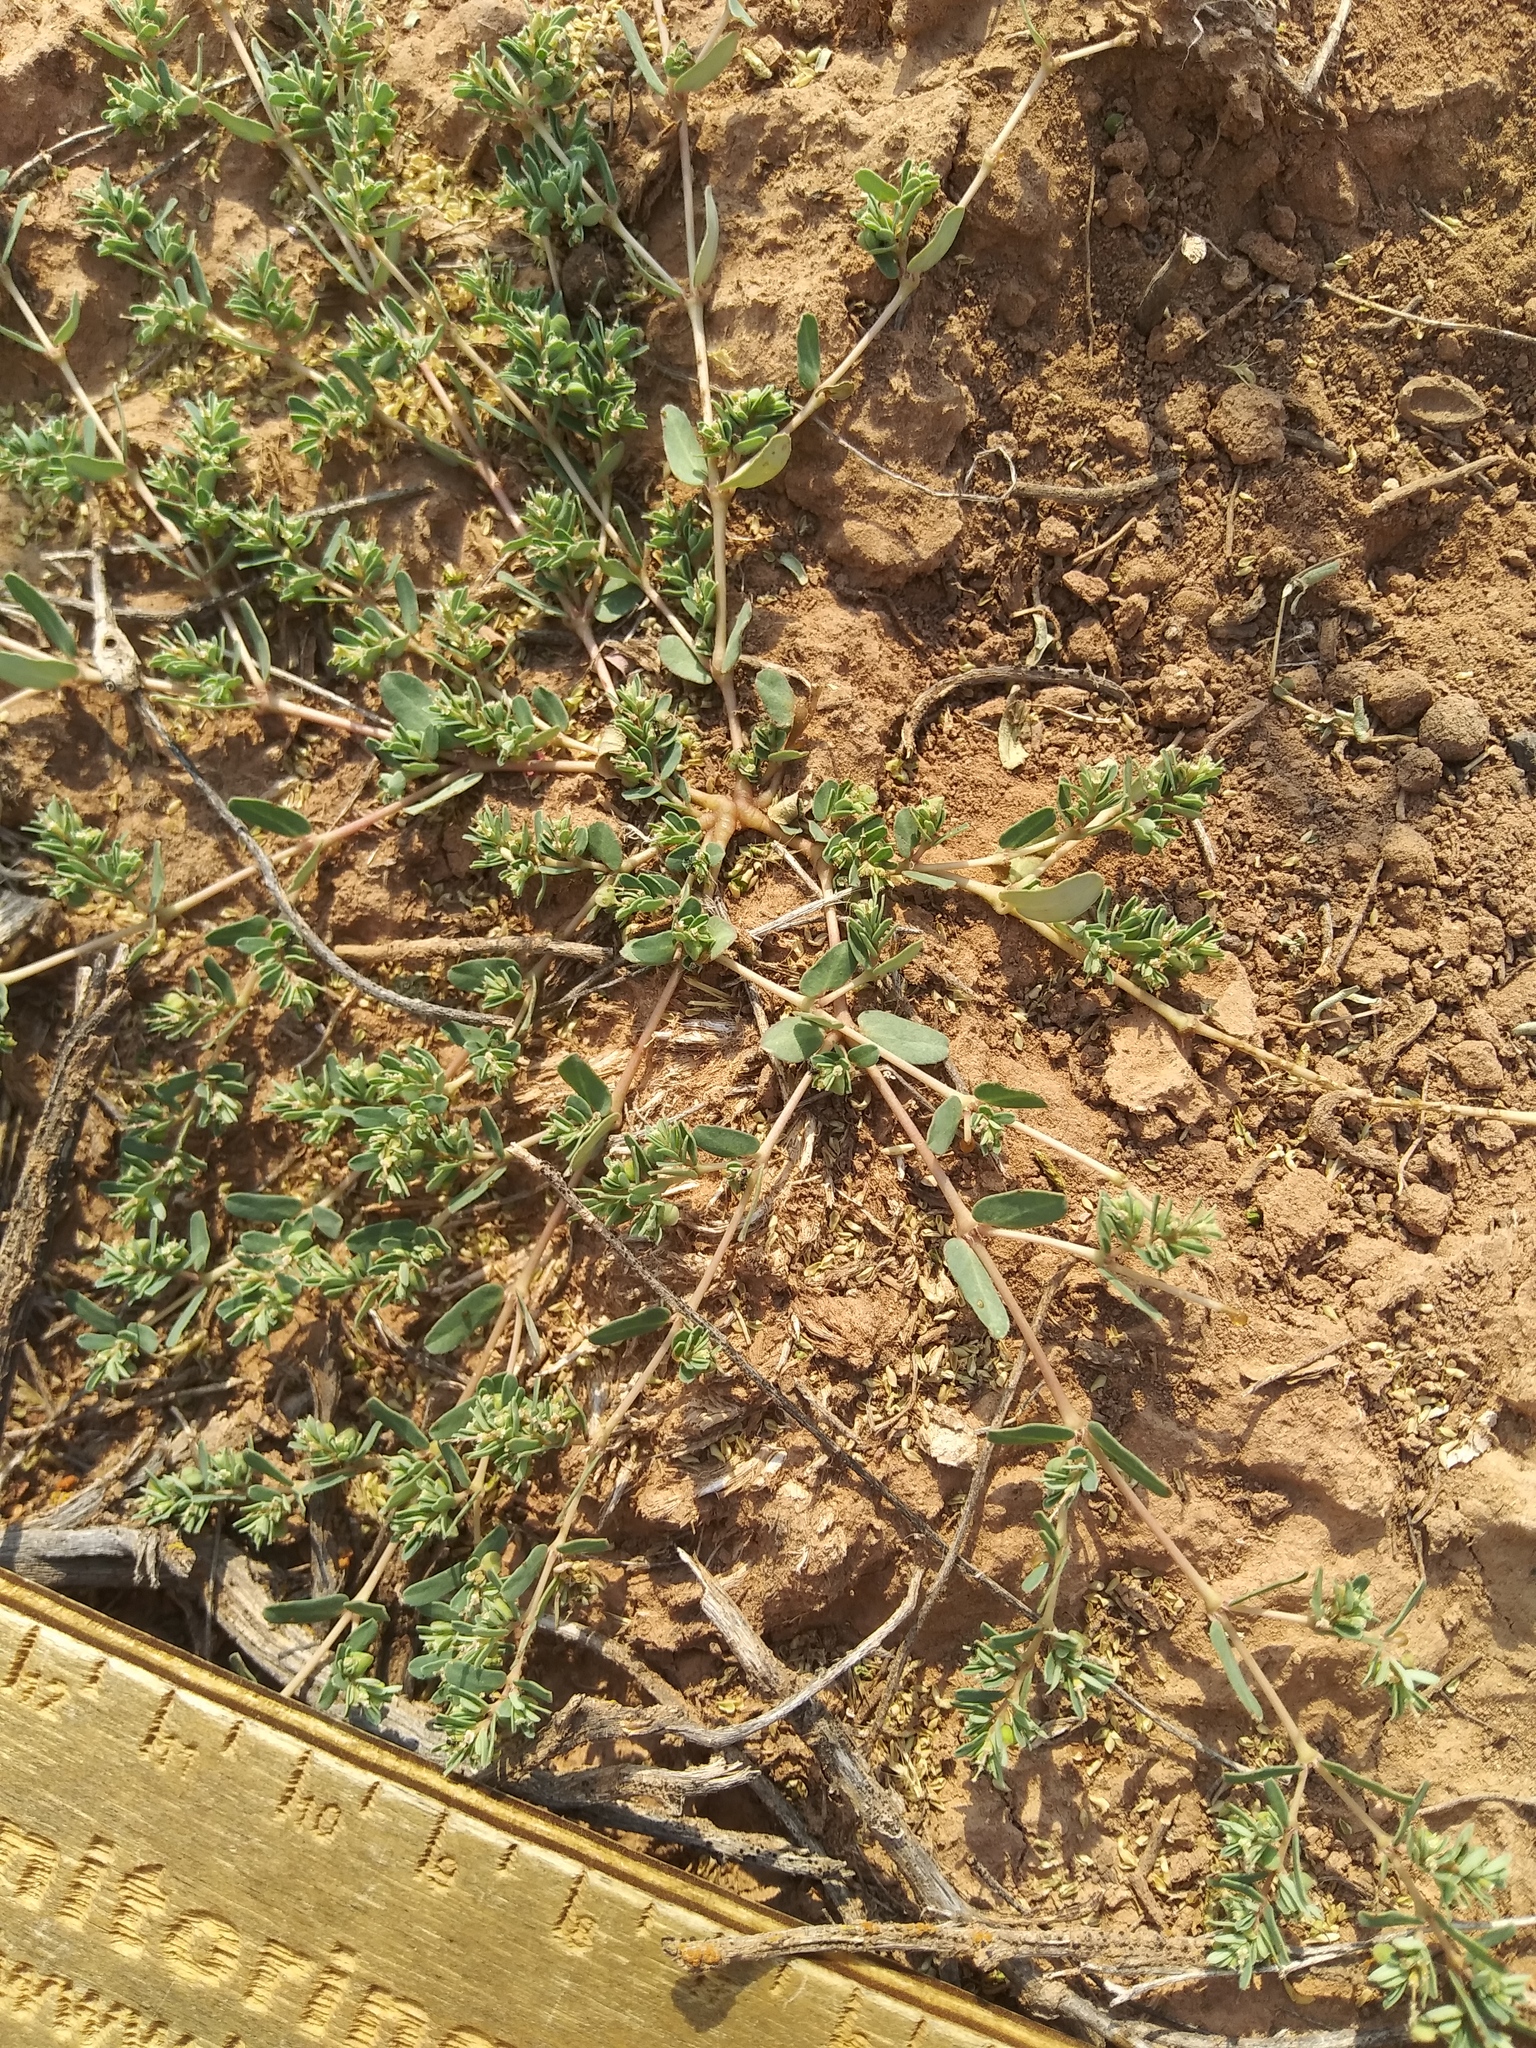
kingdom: Plantae
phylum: Tracheophyta
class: Magnoliopsida
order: Malpighiales
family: Euphorbiaceae
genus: Euphorbia
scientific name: Euphorbia glyptosperma
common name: Corrugate-seeded spurge
